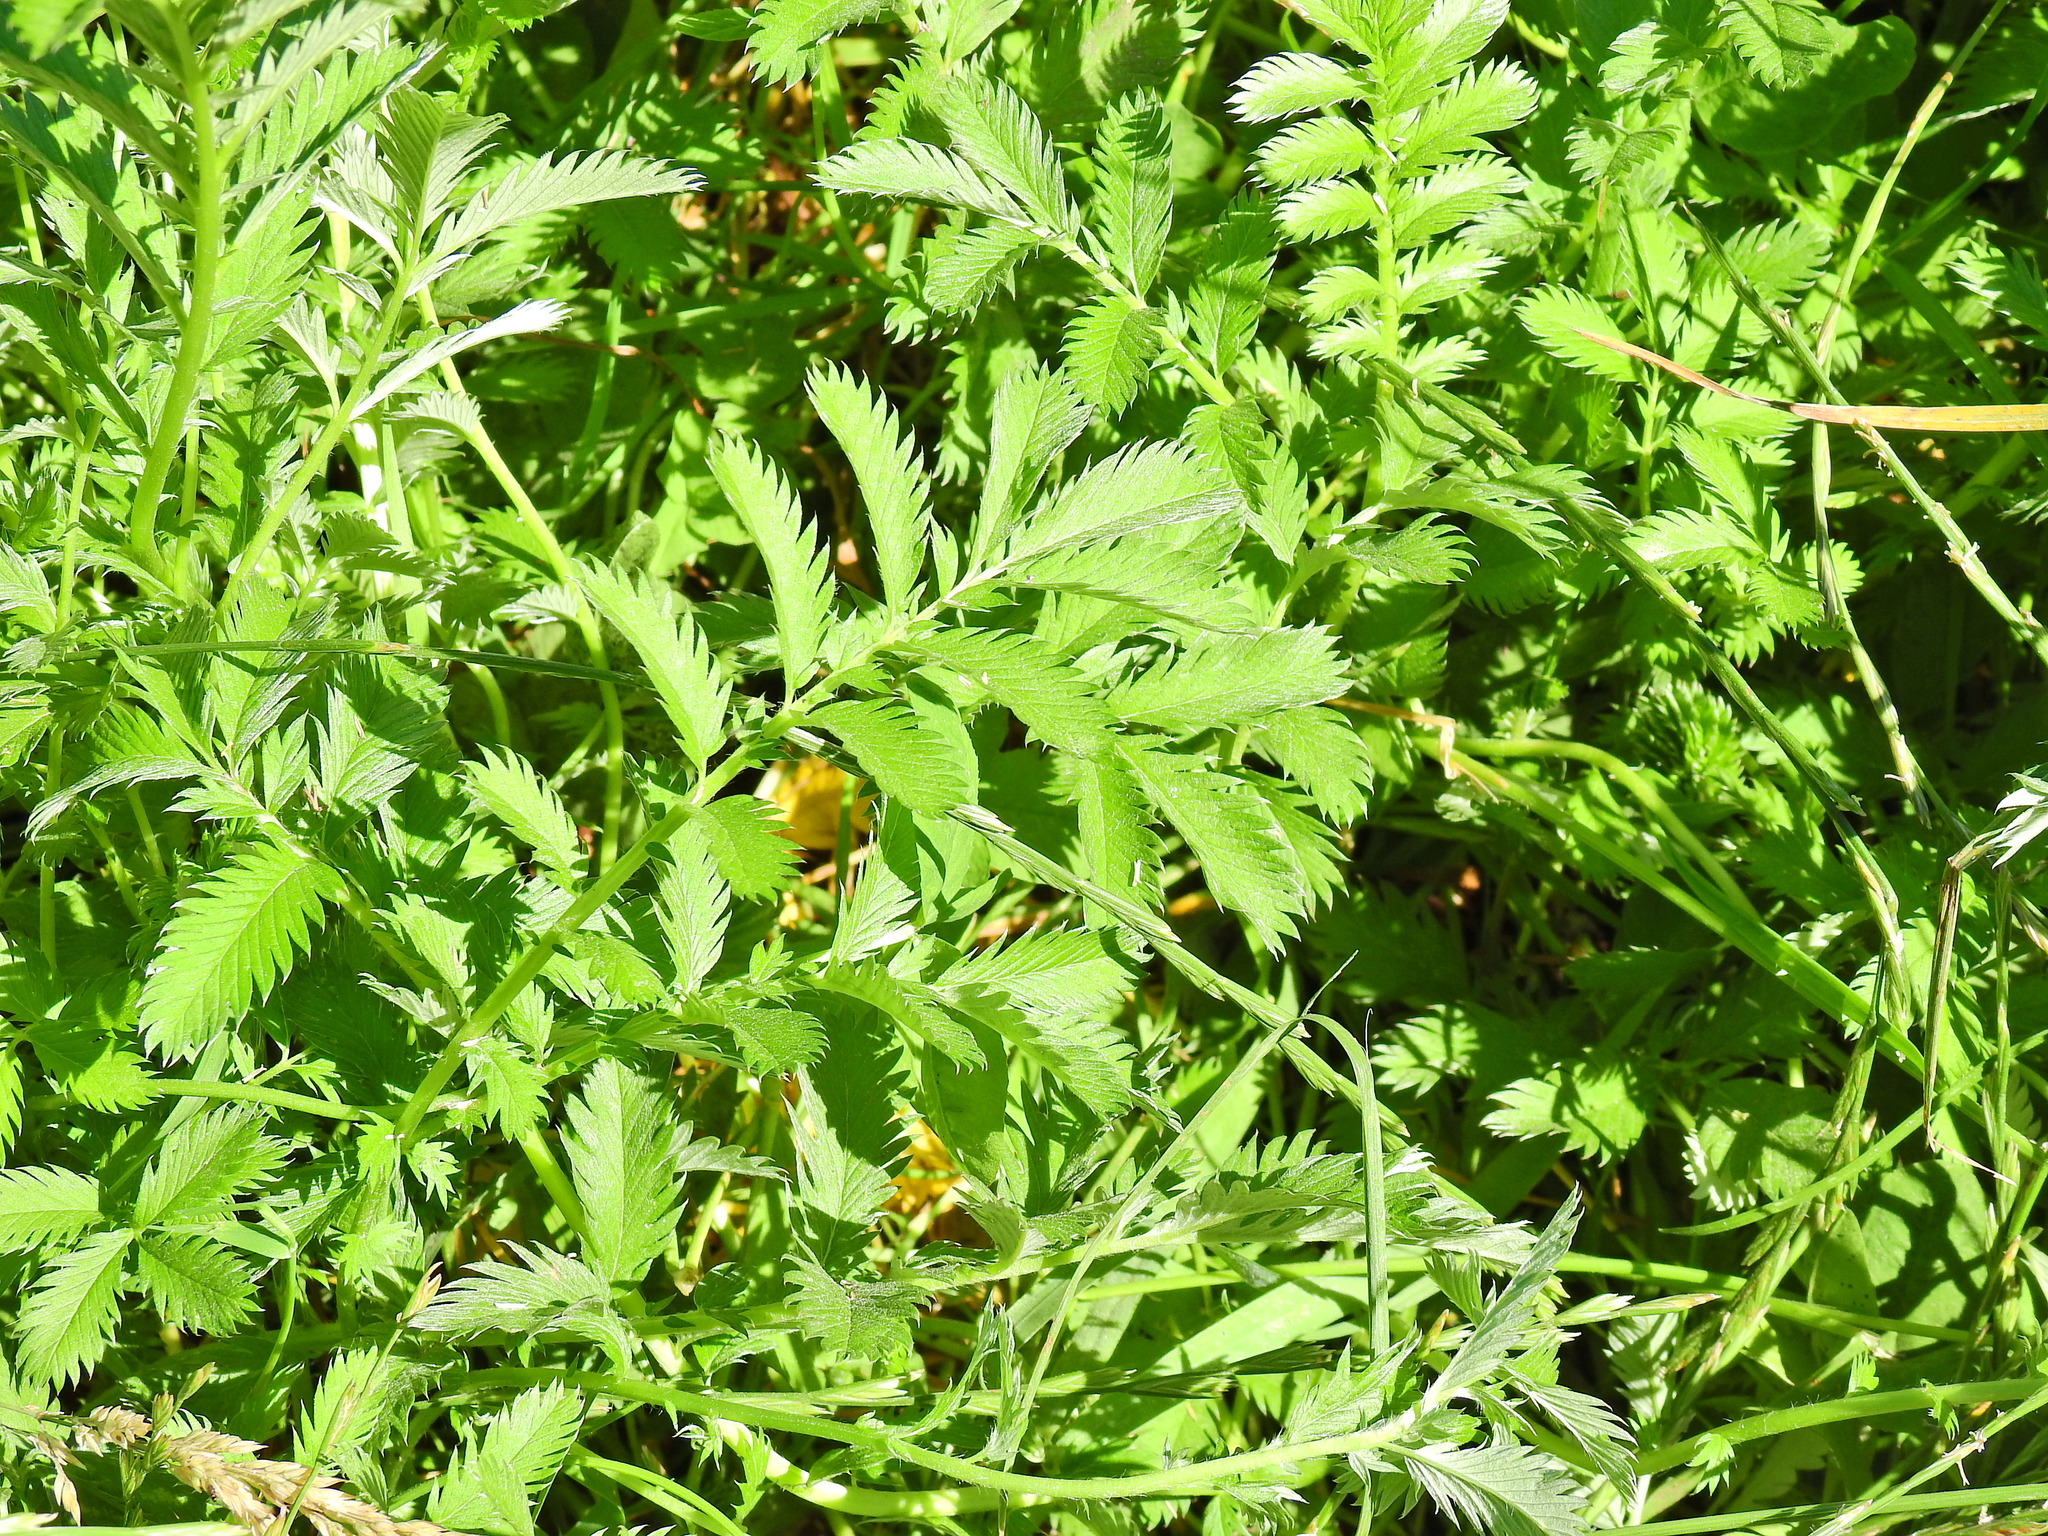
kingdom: Plantae
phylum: Tracheophyta
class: Magnoliopsida
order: Rosales
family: Rosaceae
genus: Argentina
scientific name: Argentina anserina
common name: Common silverweed
